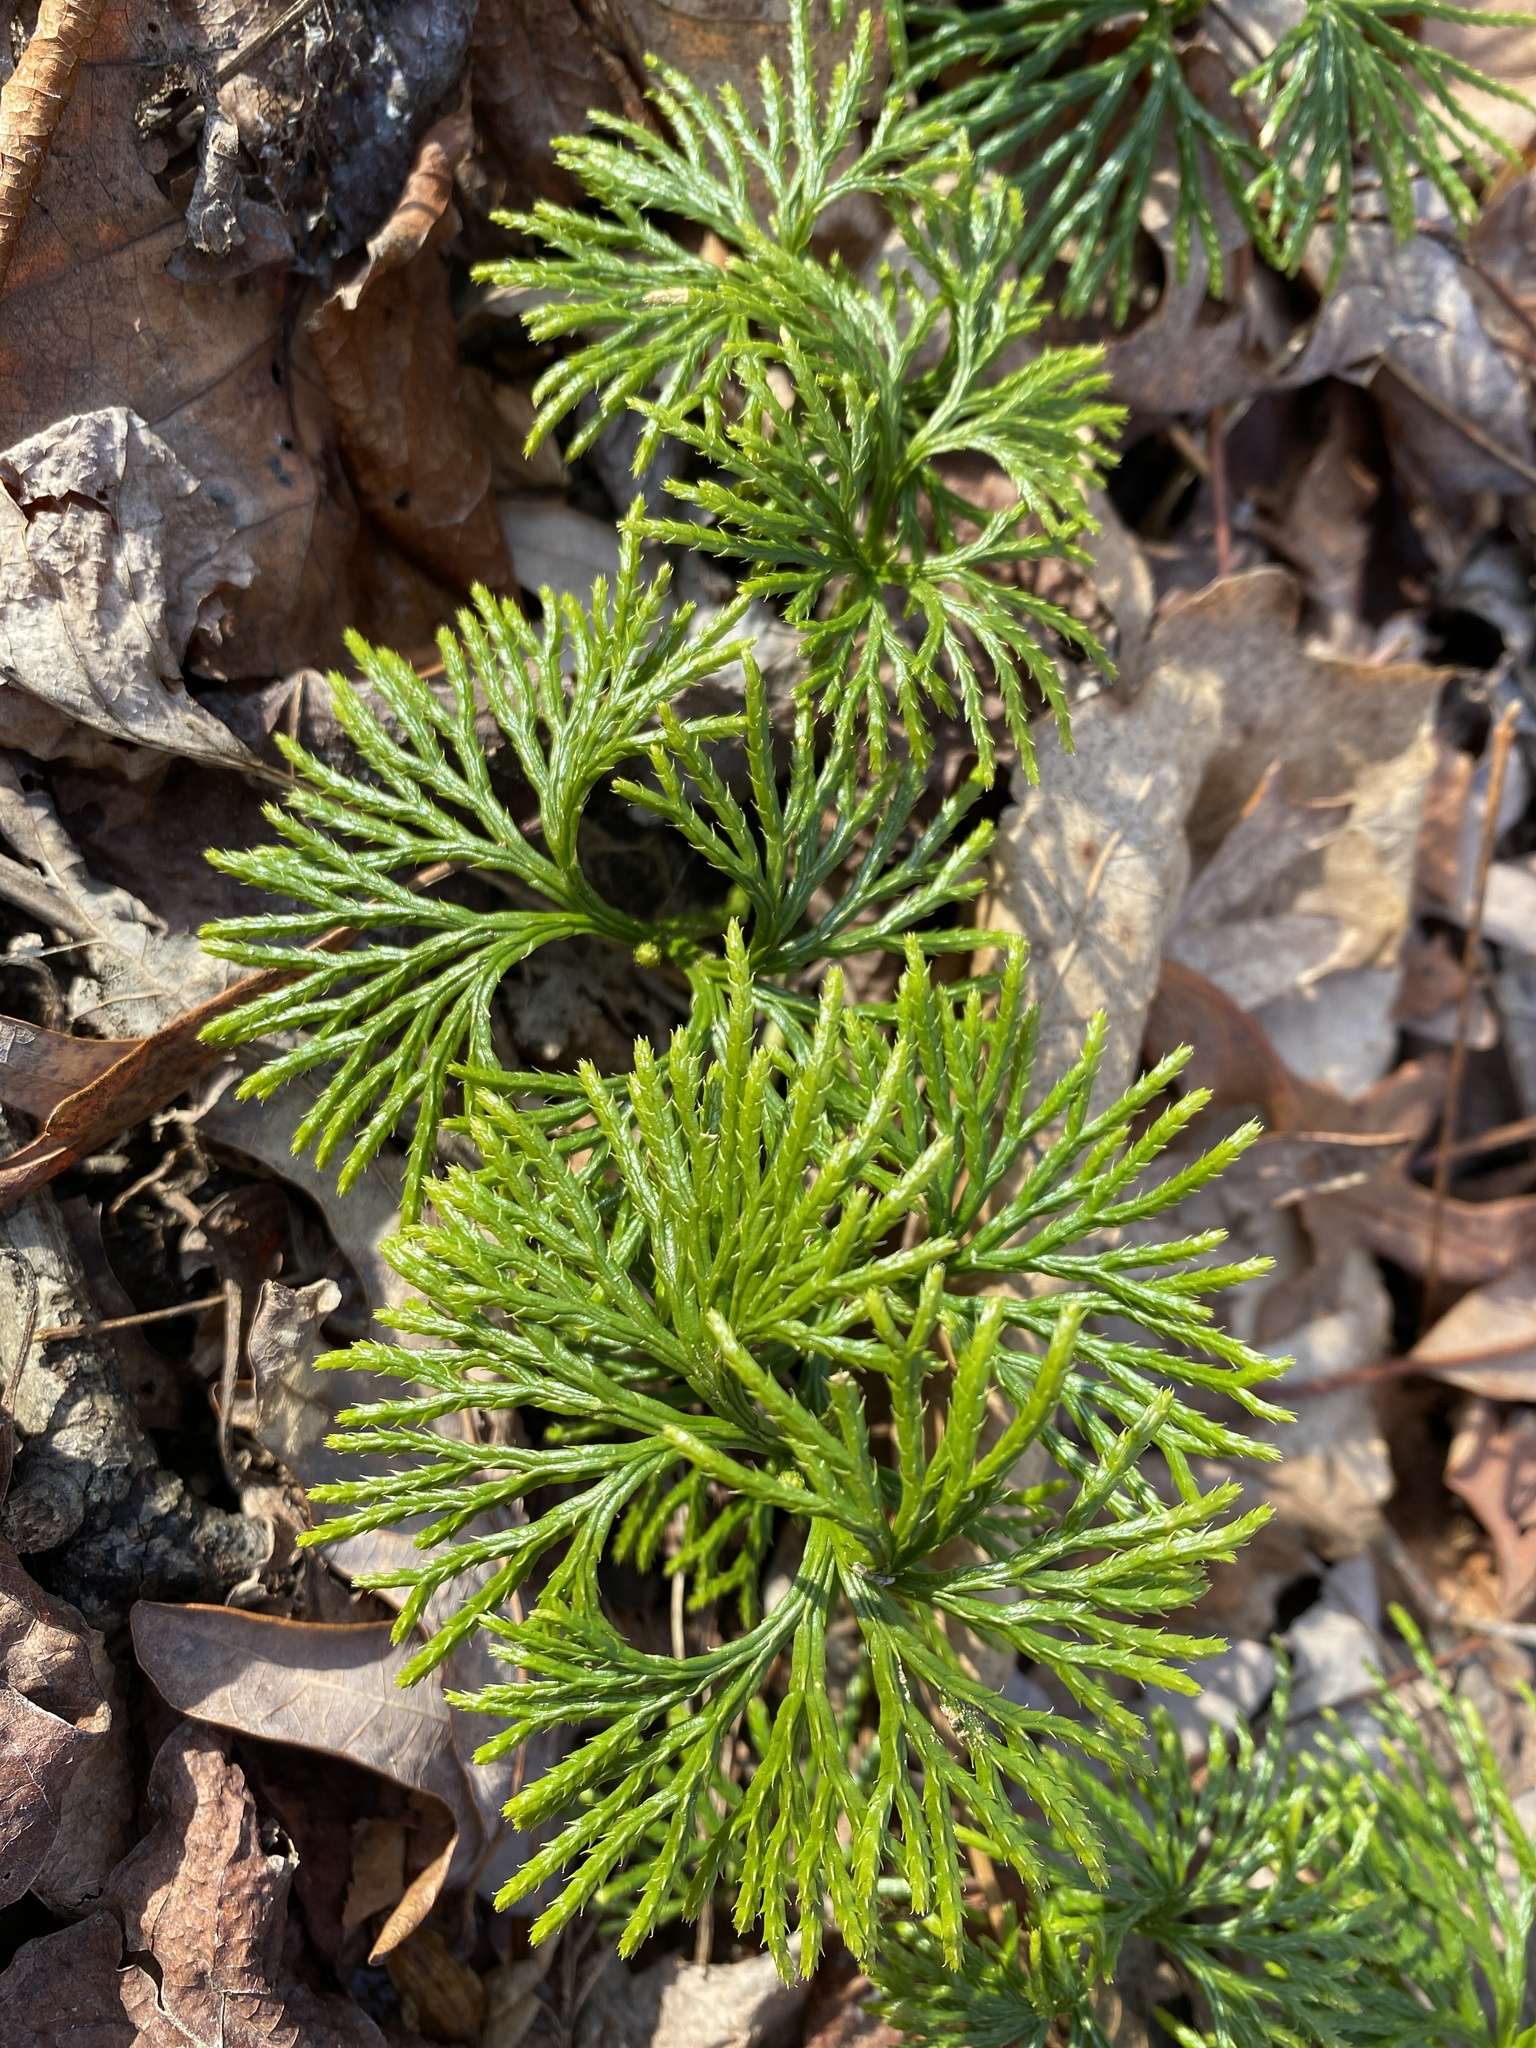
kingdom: Plantae
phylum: Tracheophyta
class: Lycopodiopsida
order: Lycopodiales
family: Lycopodiaceae
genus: Diphasiastrum
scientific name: Diphasiastrum digitatum
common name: Southern running-pine
